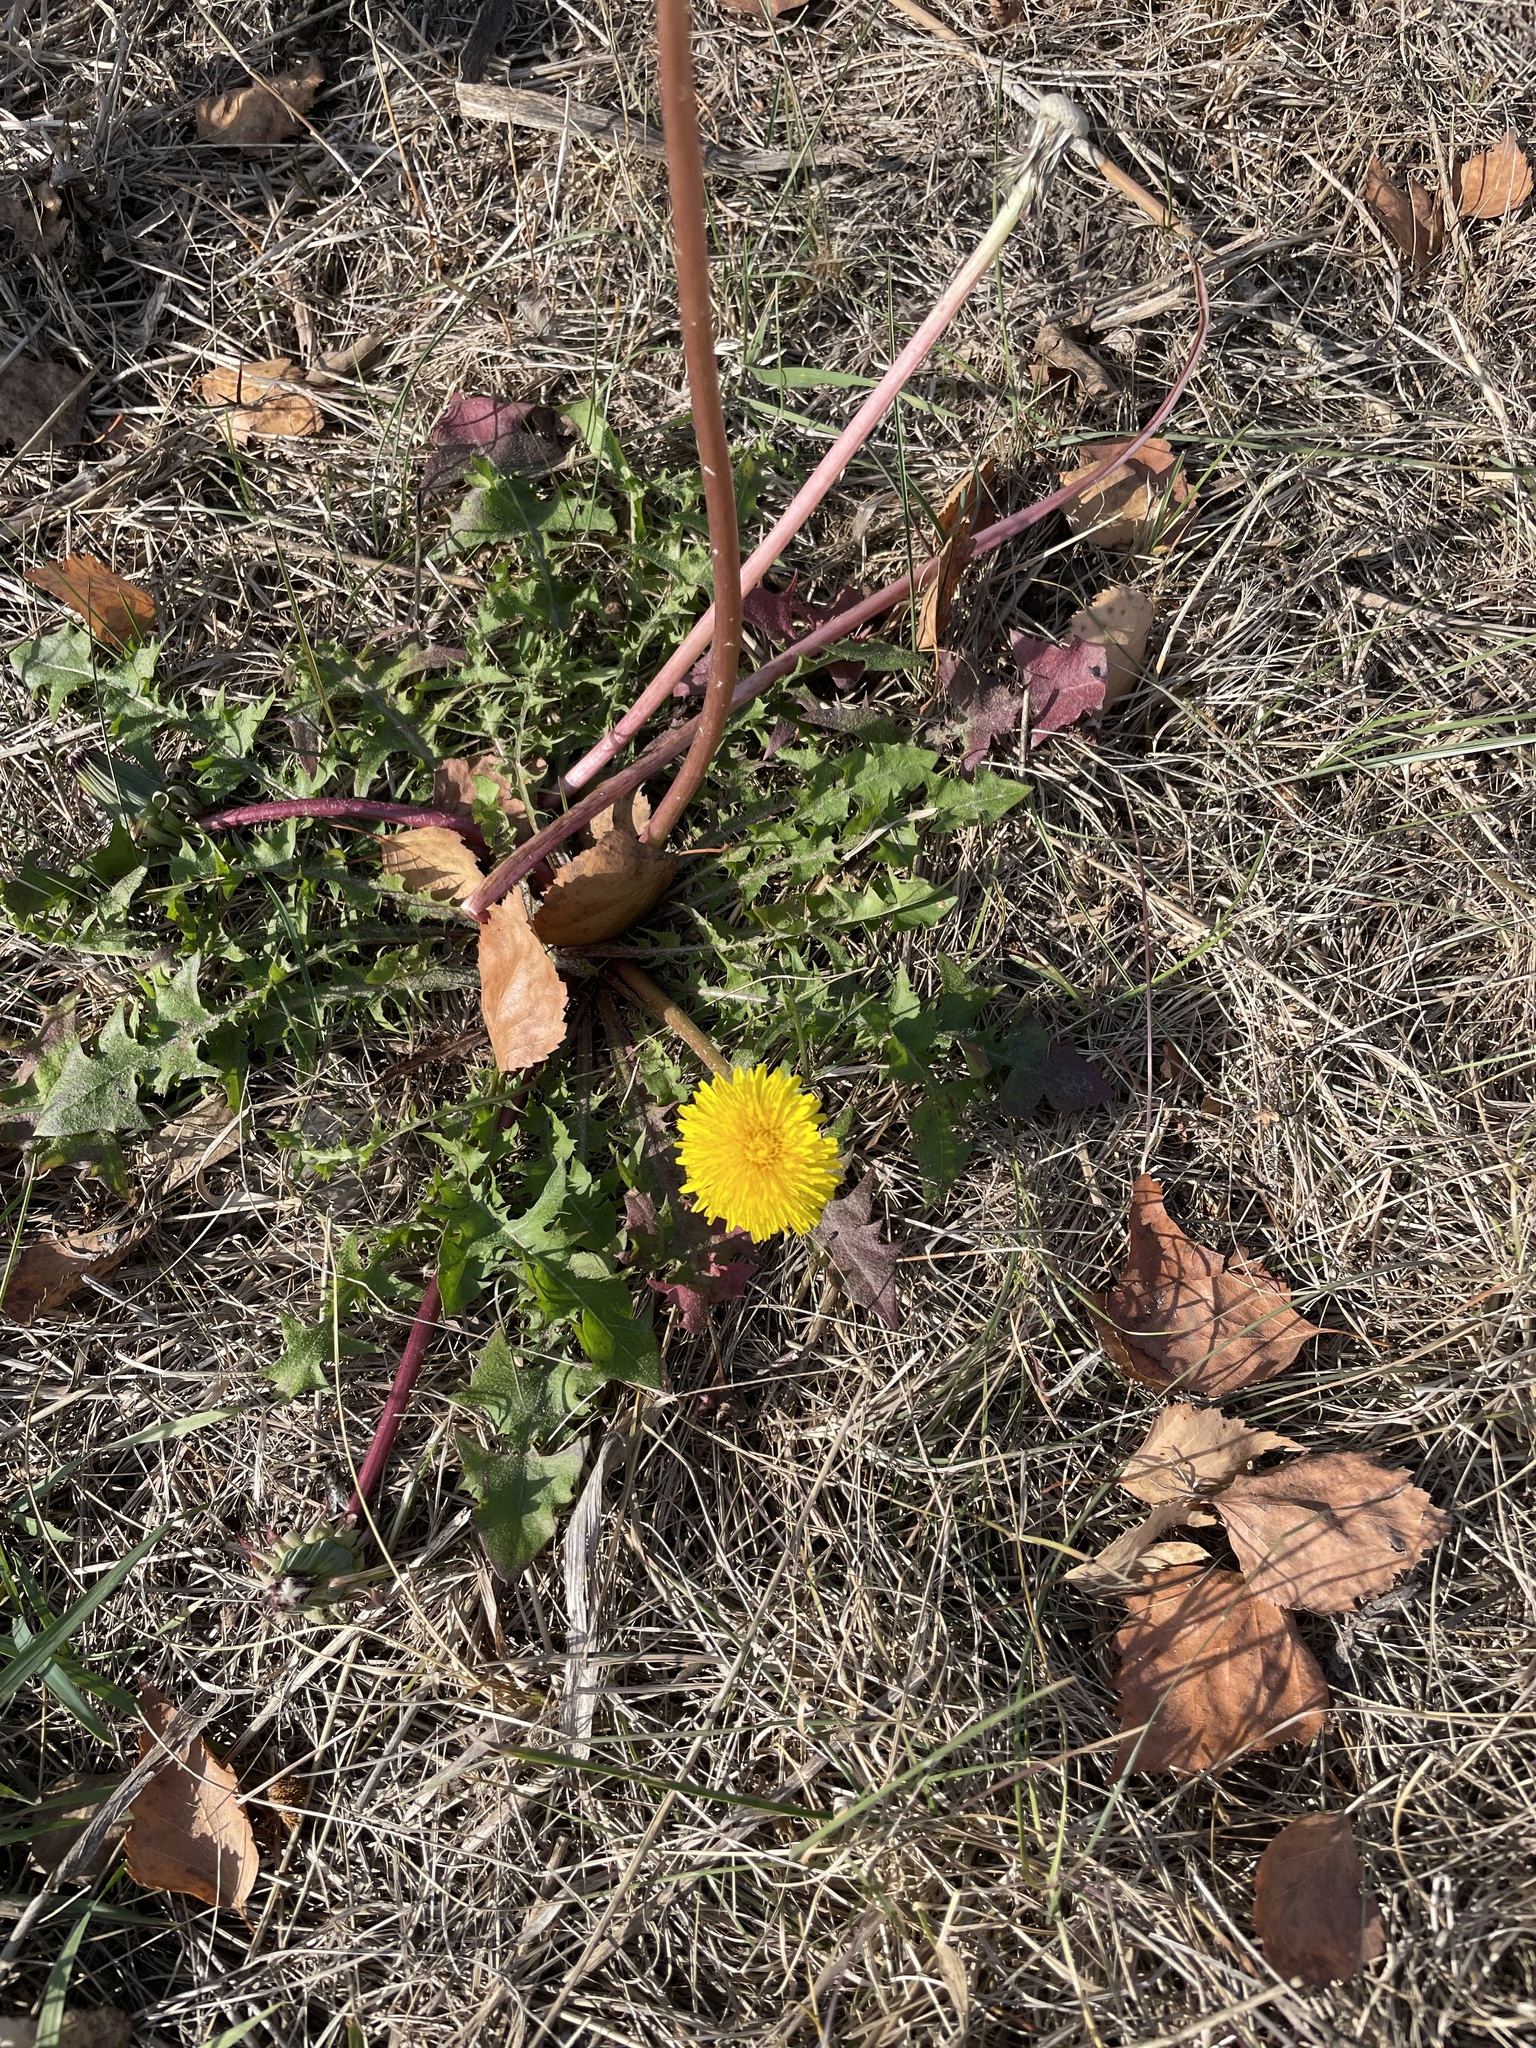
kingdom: Plantae
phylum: Tracheophyta
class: Magnoliopsida
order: Asterales
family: Asteraceae
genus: Taraxacum
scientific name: Taraxacum officinale
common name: Common dandelion
